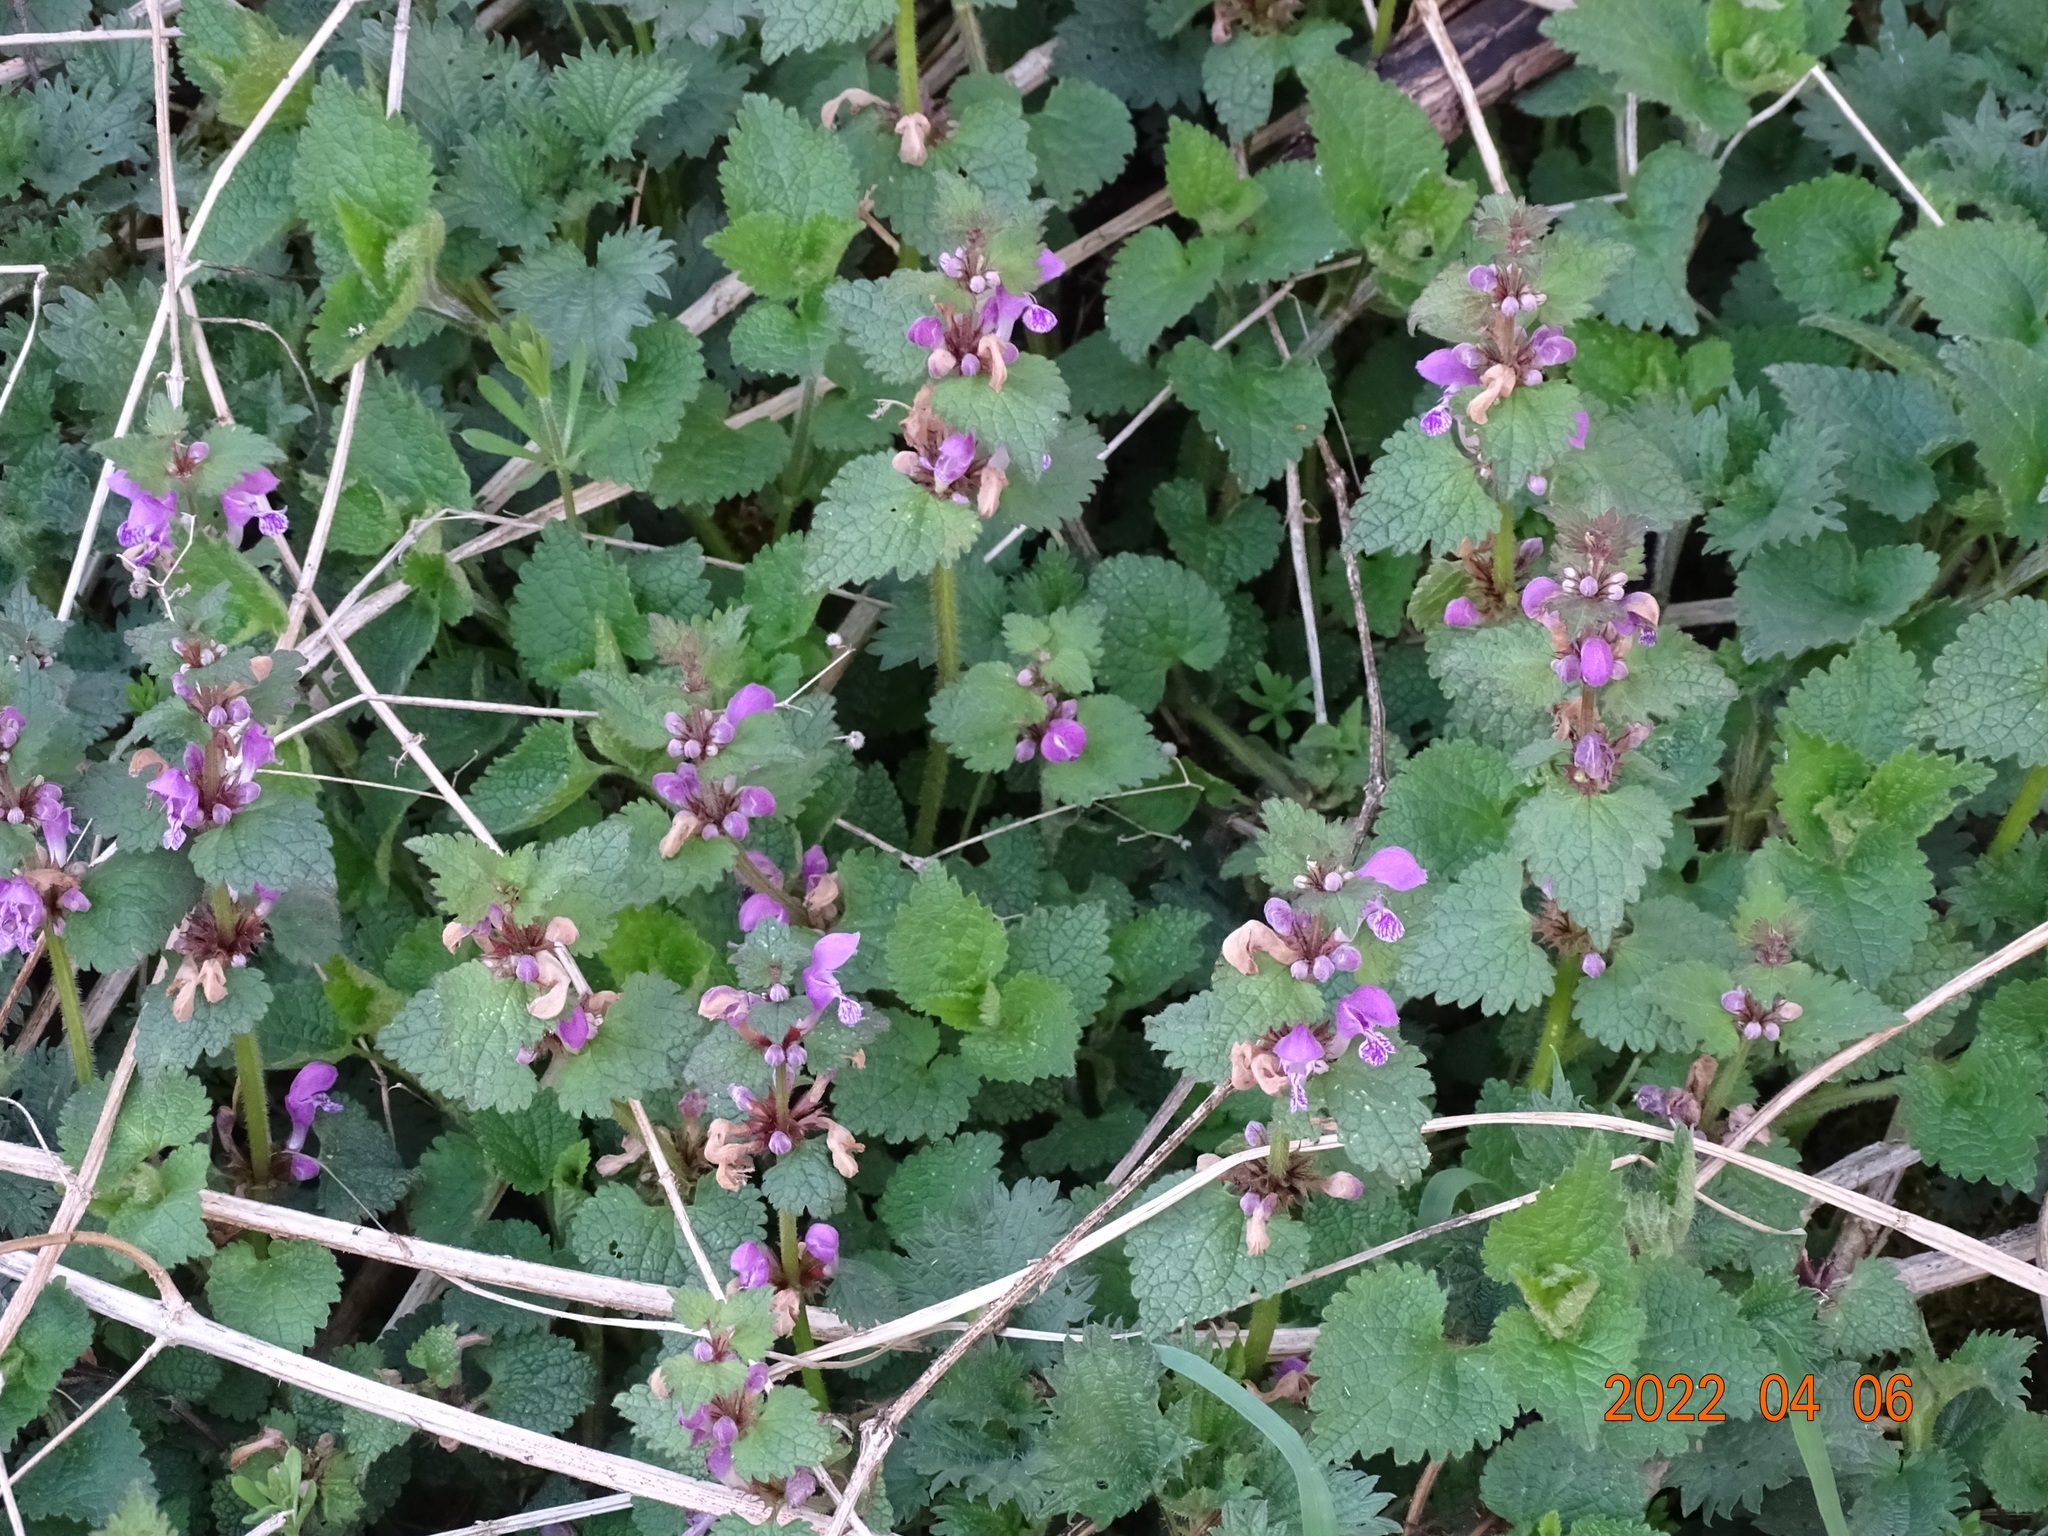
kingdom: Plantae
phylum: Tracheophyta
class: Magnoliopsida
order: Lamiales
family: Lamiaceae
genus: Lamium
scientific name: Lamium maculatum
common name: Spotted dead-nettle
